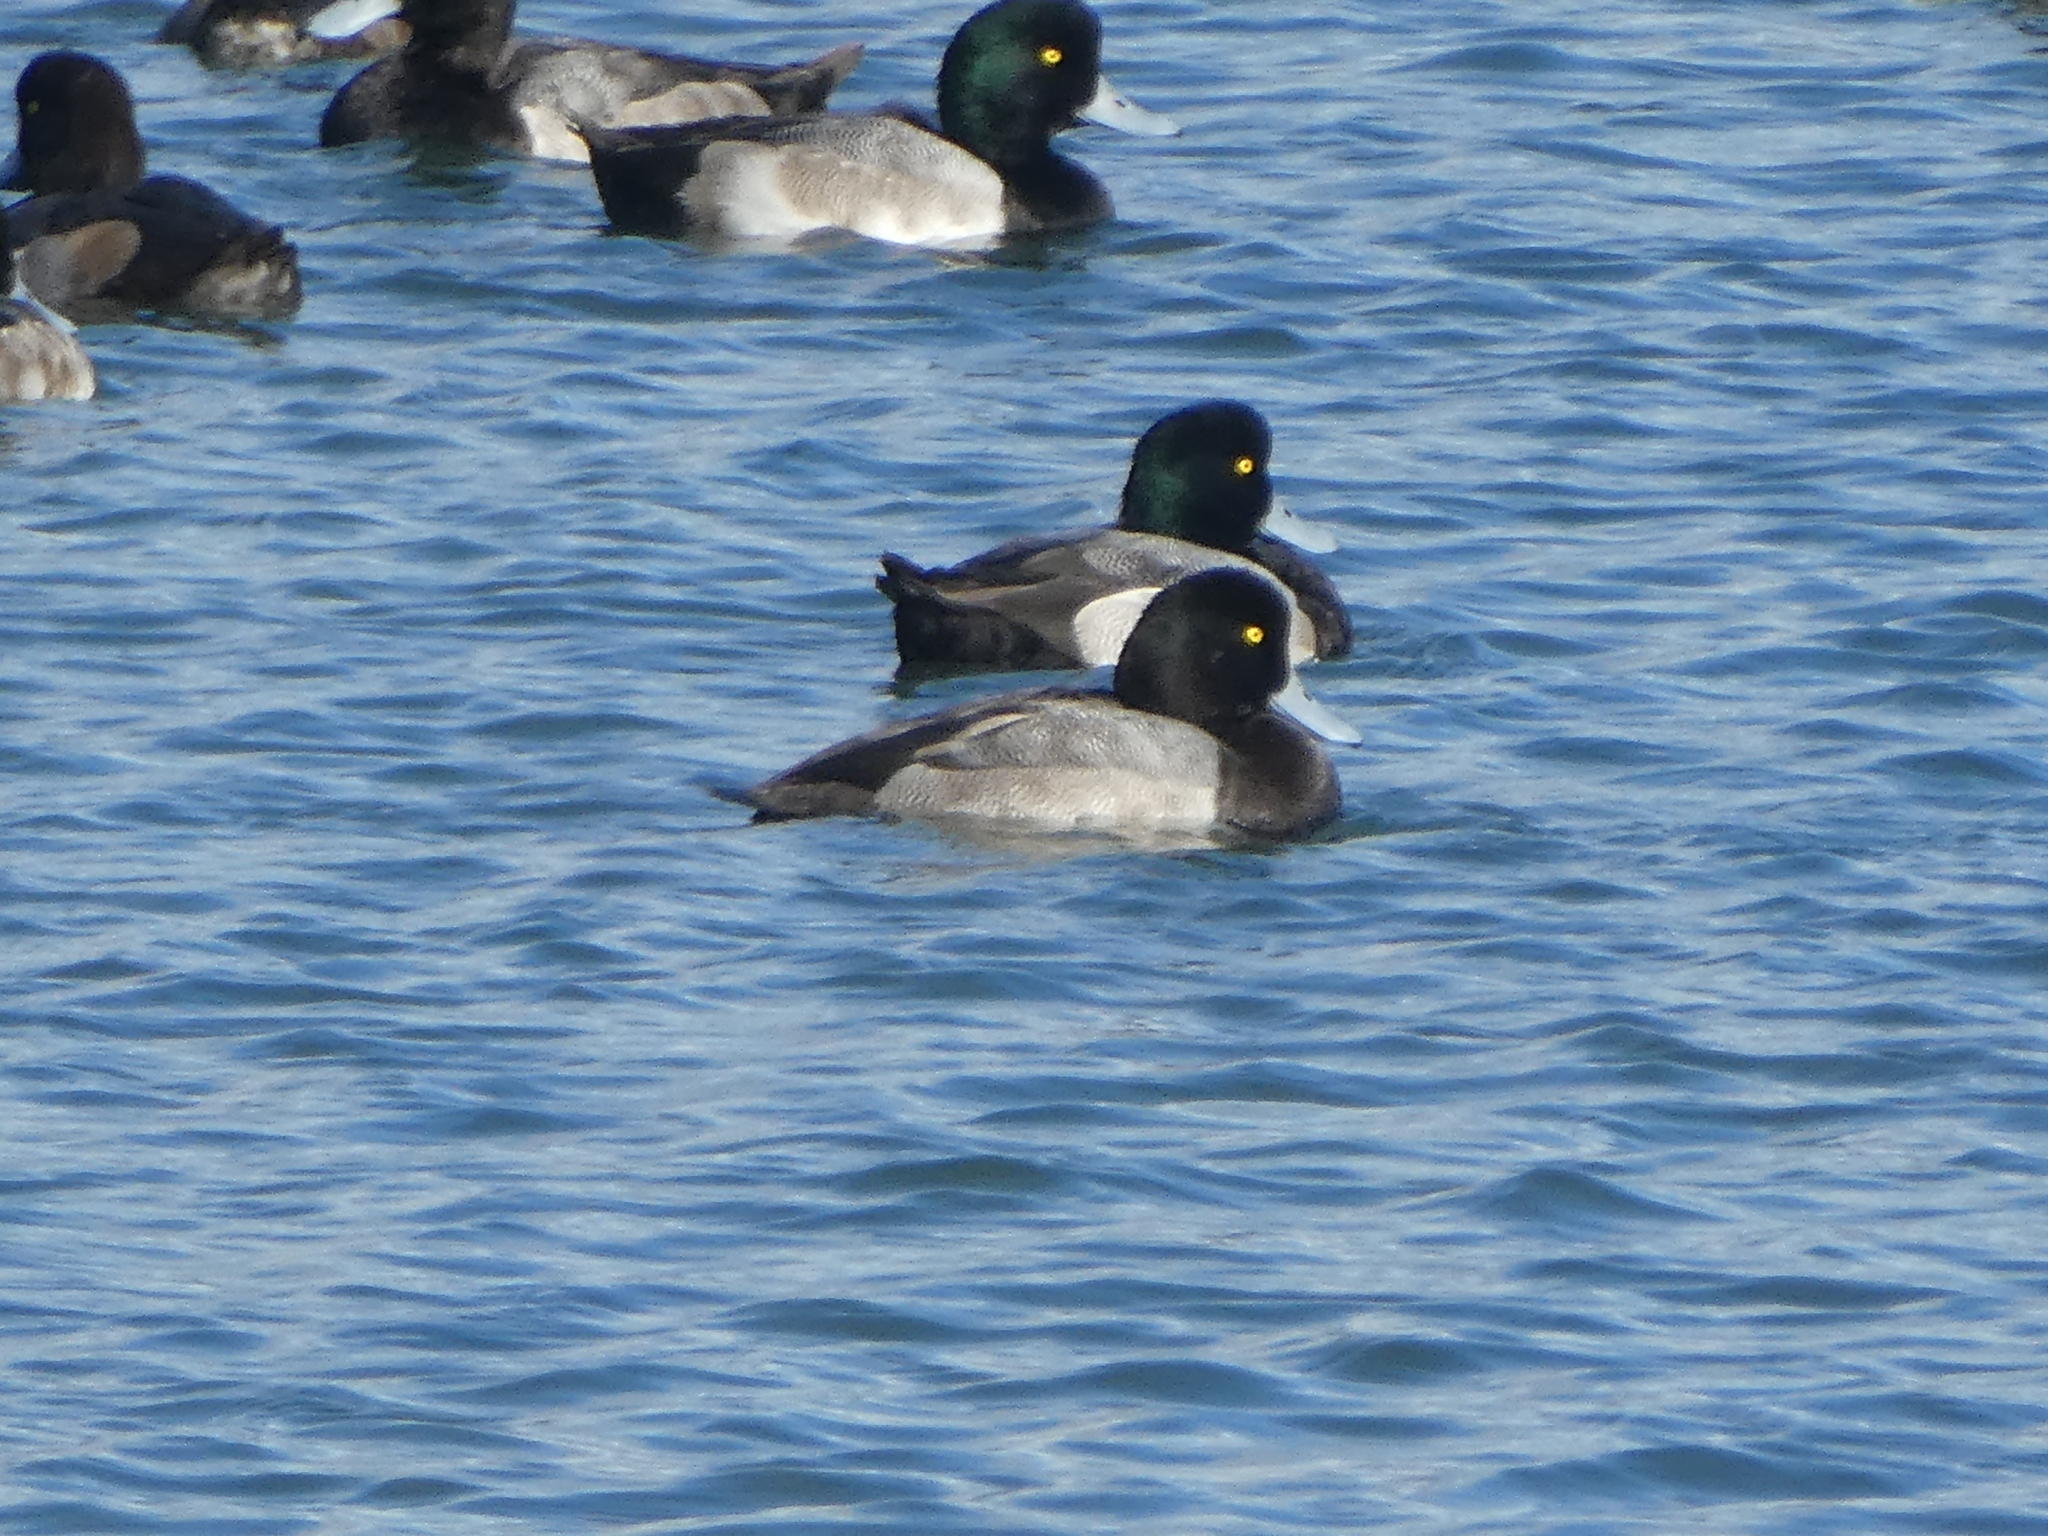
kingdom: Animalia
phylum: Chordata
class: Aves
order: Anseriformes
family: Anatidae
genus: Aythya
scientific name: Aythya marila
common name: Greater scaup
